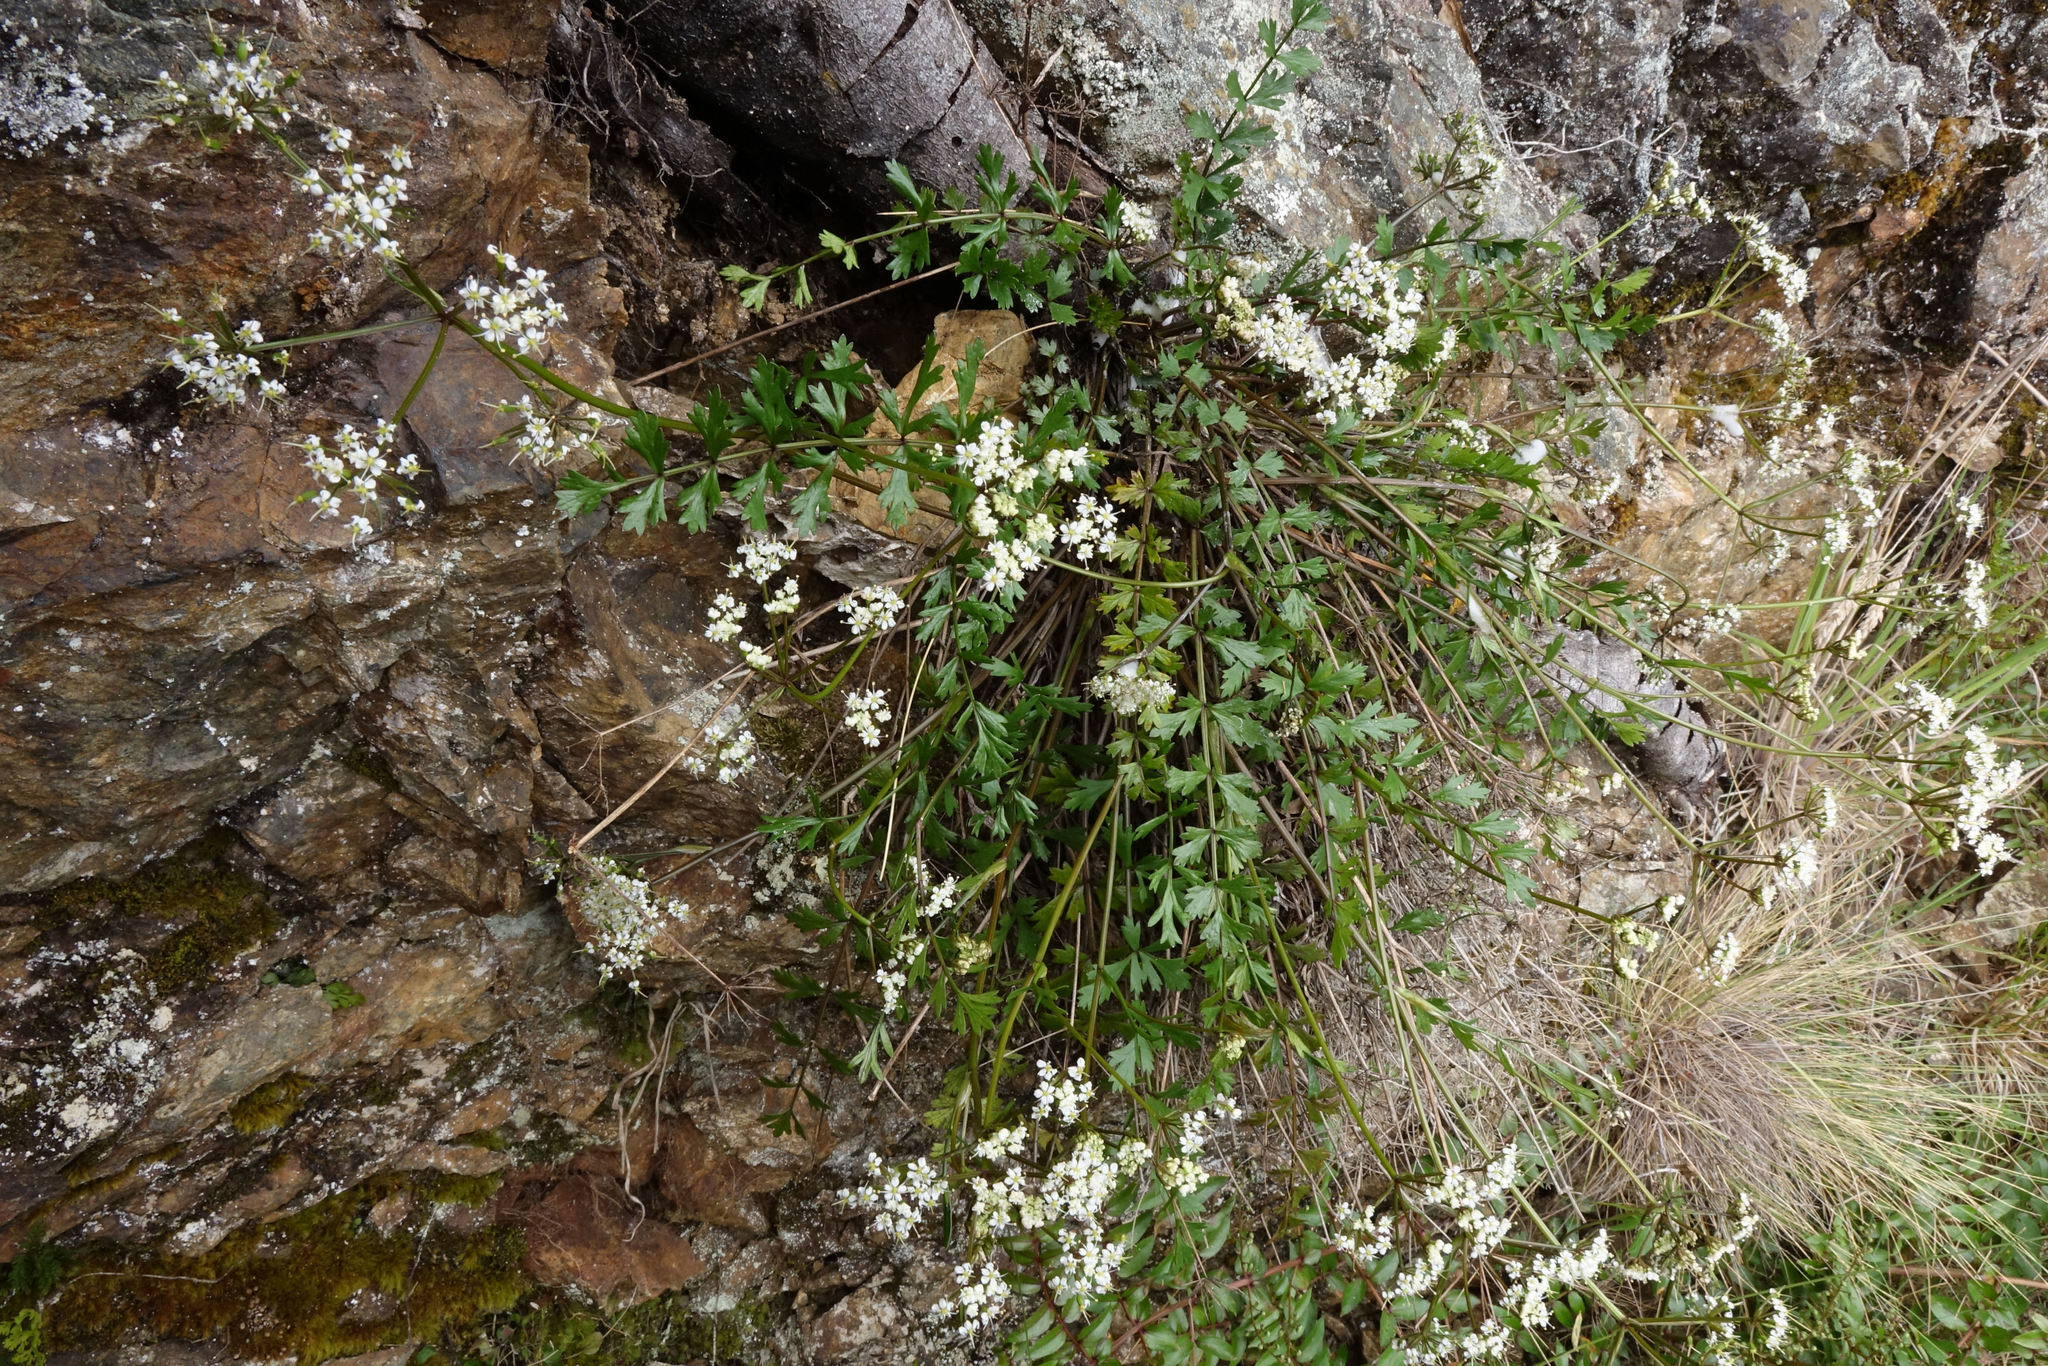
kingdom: Plantae
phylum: Tracheophyta
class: Magnoliopsida
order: Apiales
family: Apiaceae
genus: Gingidia
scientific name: Gingidia decipiens
